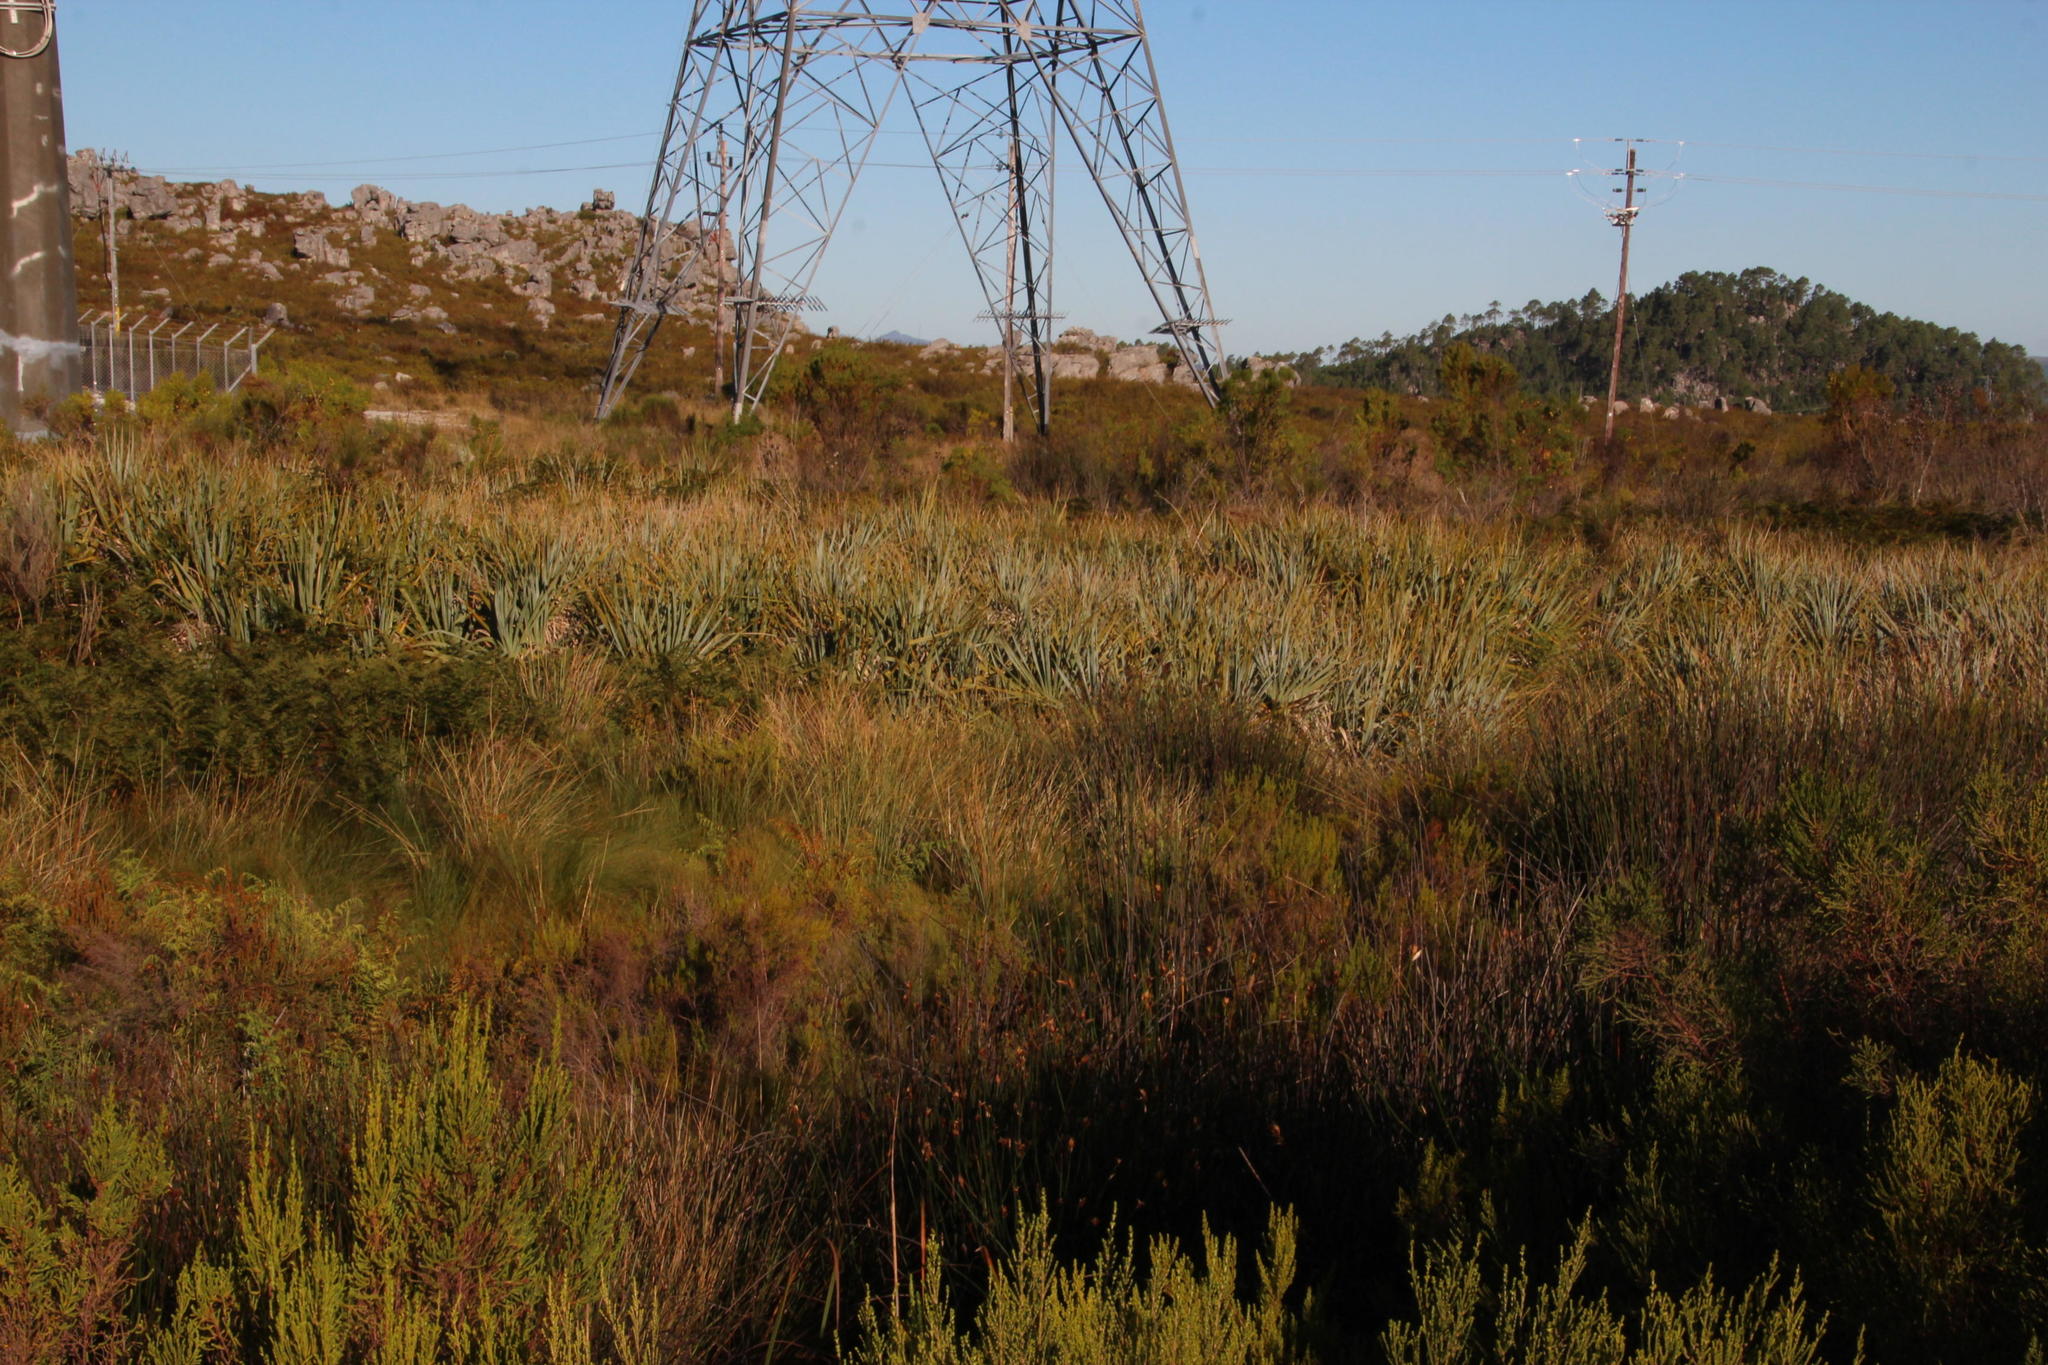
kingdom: Plantae
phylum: Tracheophyta
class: Liliopsida
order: Poales
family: Thurniaceae
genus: Prionium
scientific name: Prionium serratum
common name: Palmiet
